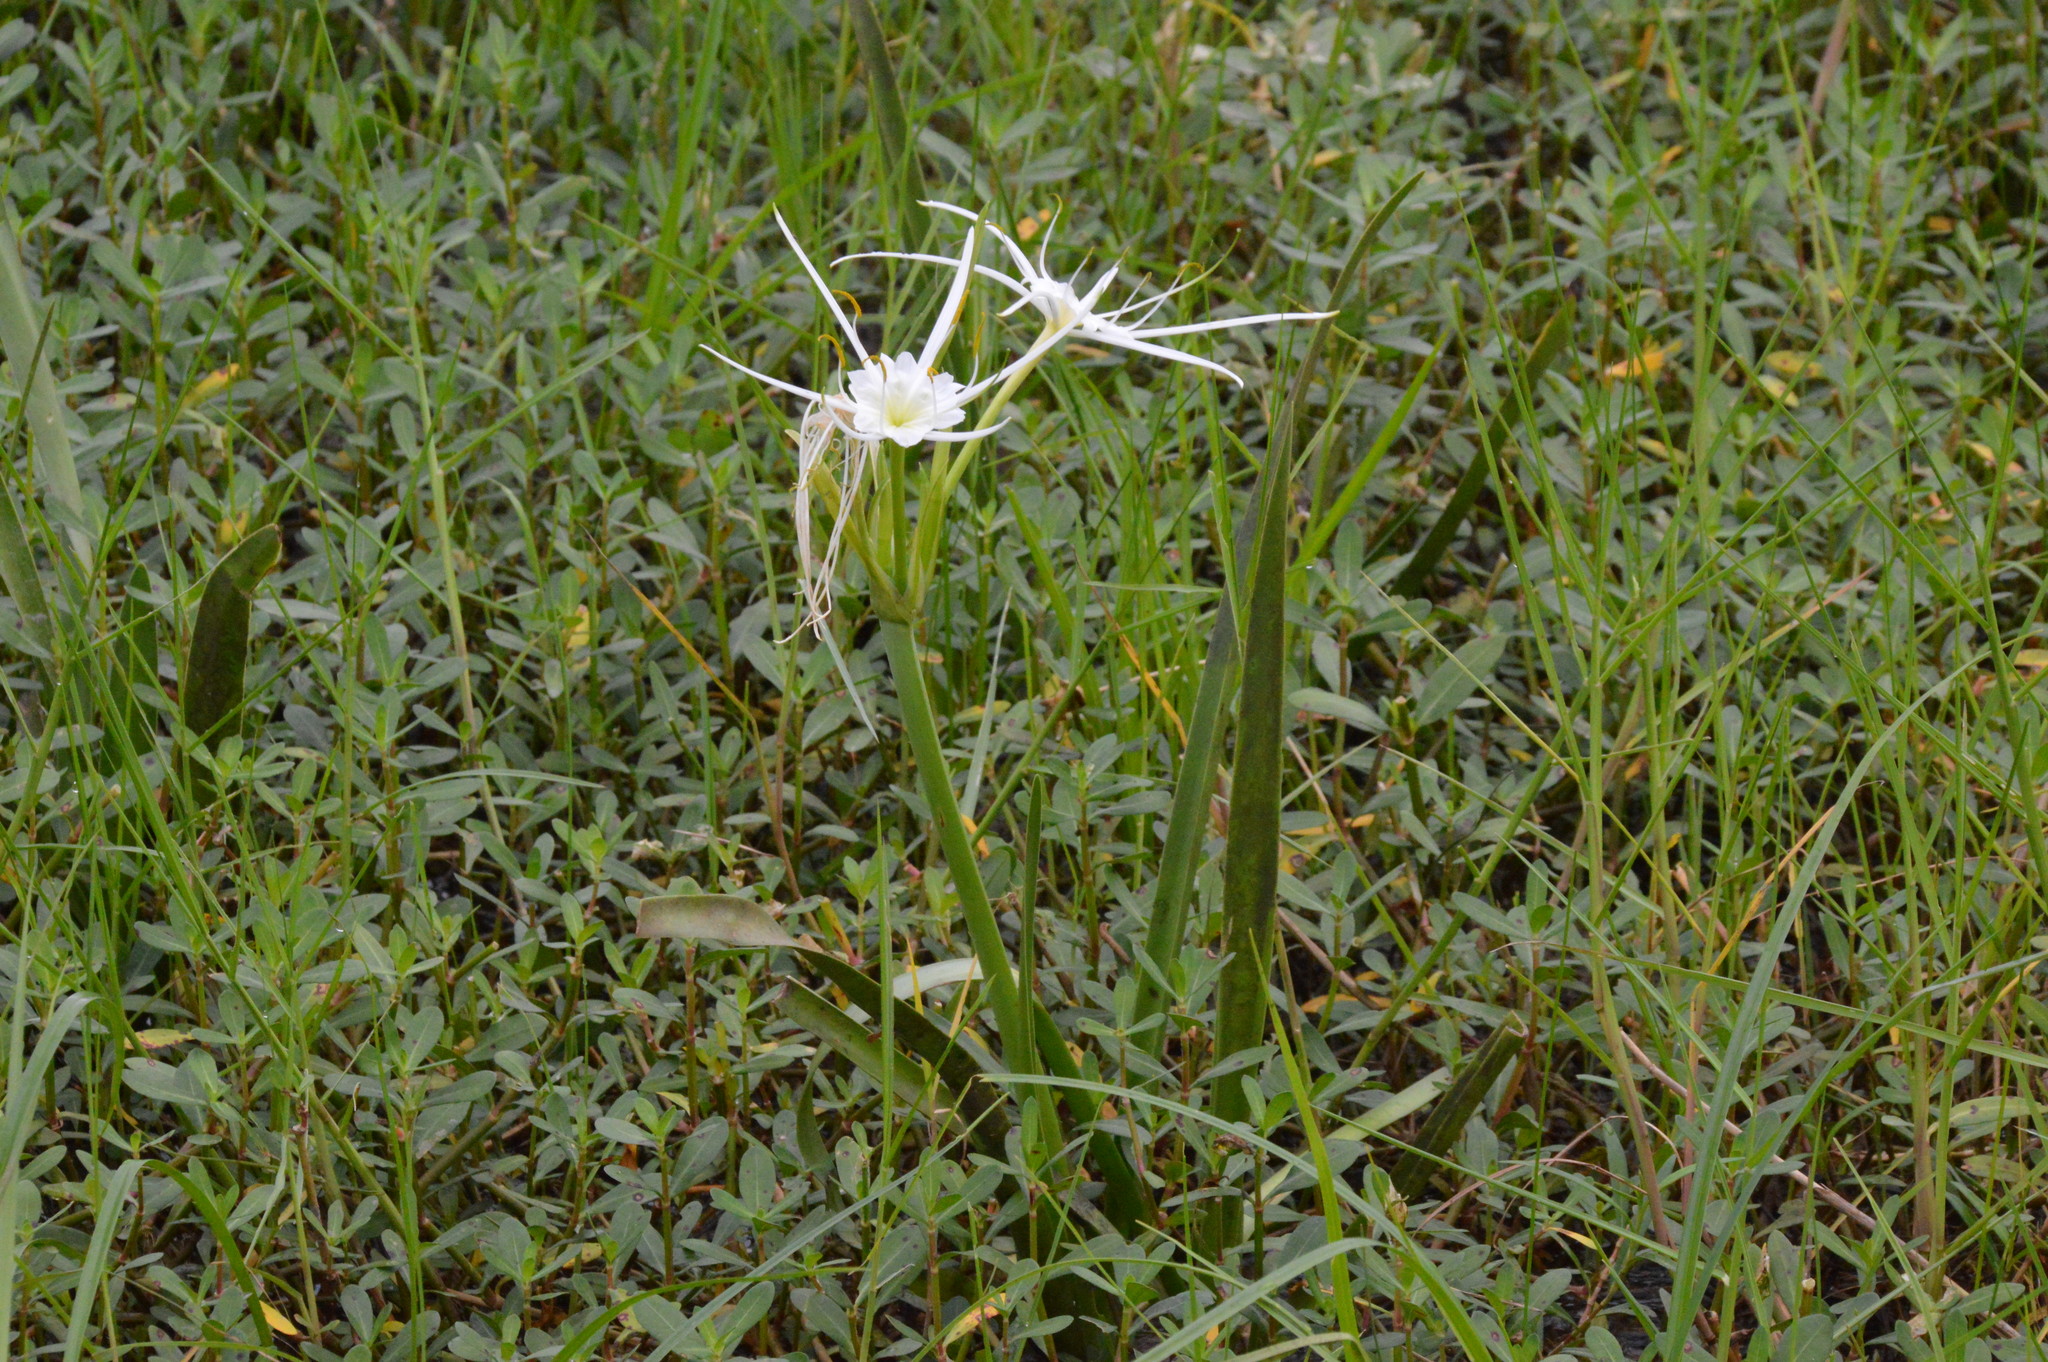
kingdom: Plantae
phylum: Tracheophyta
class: Liliopsida
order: Asparagales
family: Amaryllidaceae
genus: Hymenocallis
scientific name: Hymenocallis liriosme
